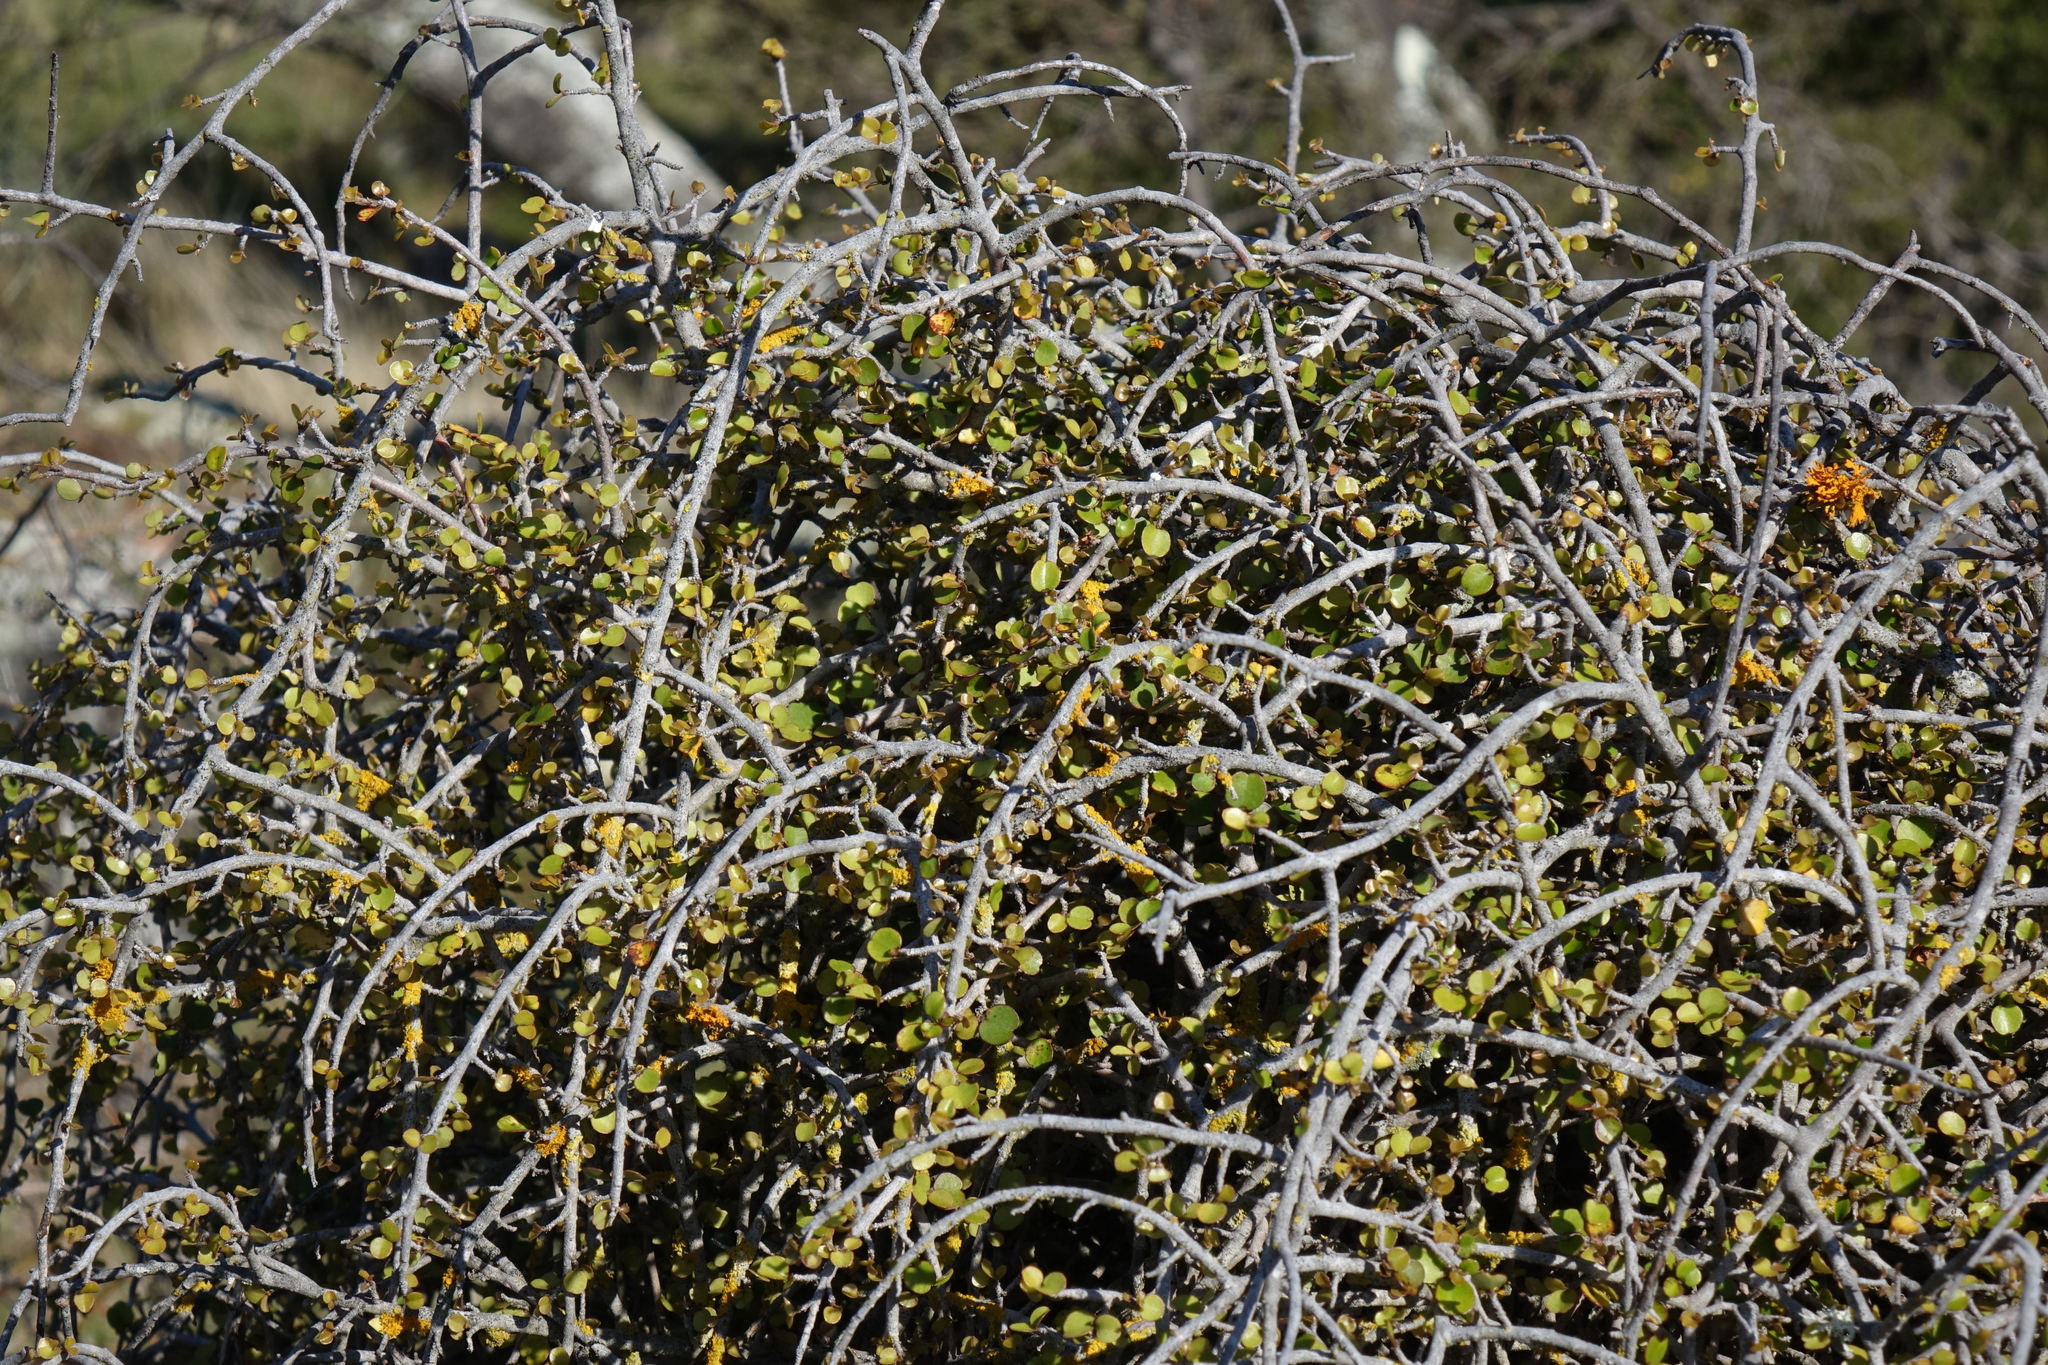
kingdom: Plantae
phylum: Tracheophyta
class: Magnoliopsida
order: Ericales
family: Primulaceae
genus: Myrsine
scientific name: Myrsine divaricata
